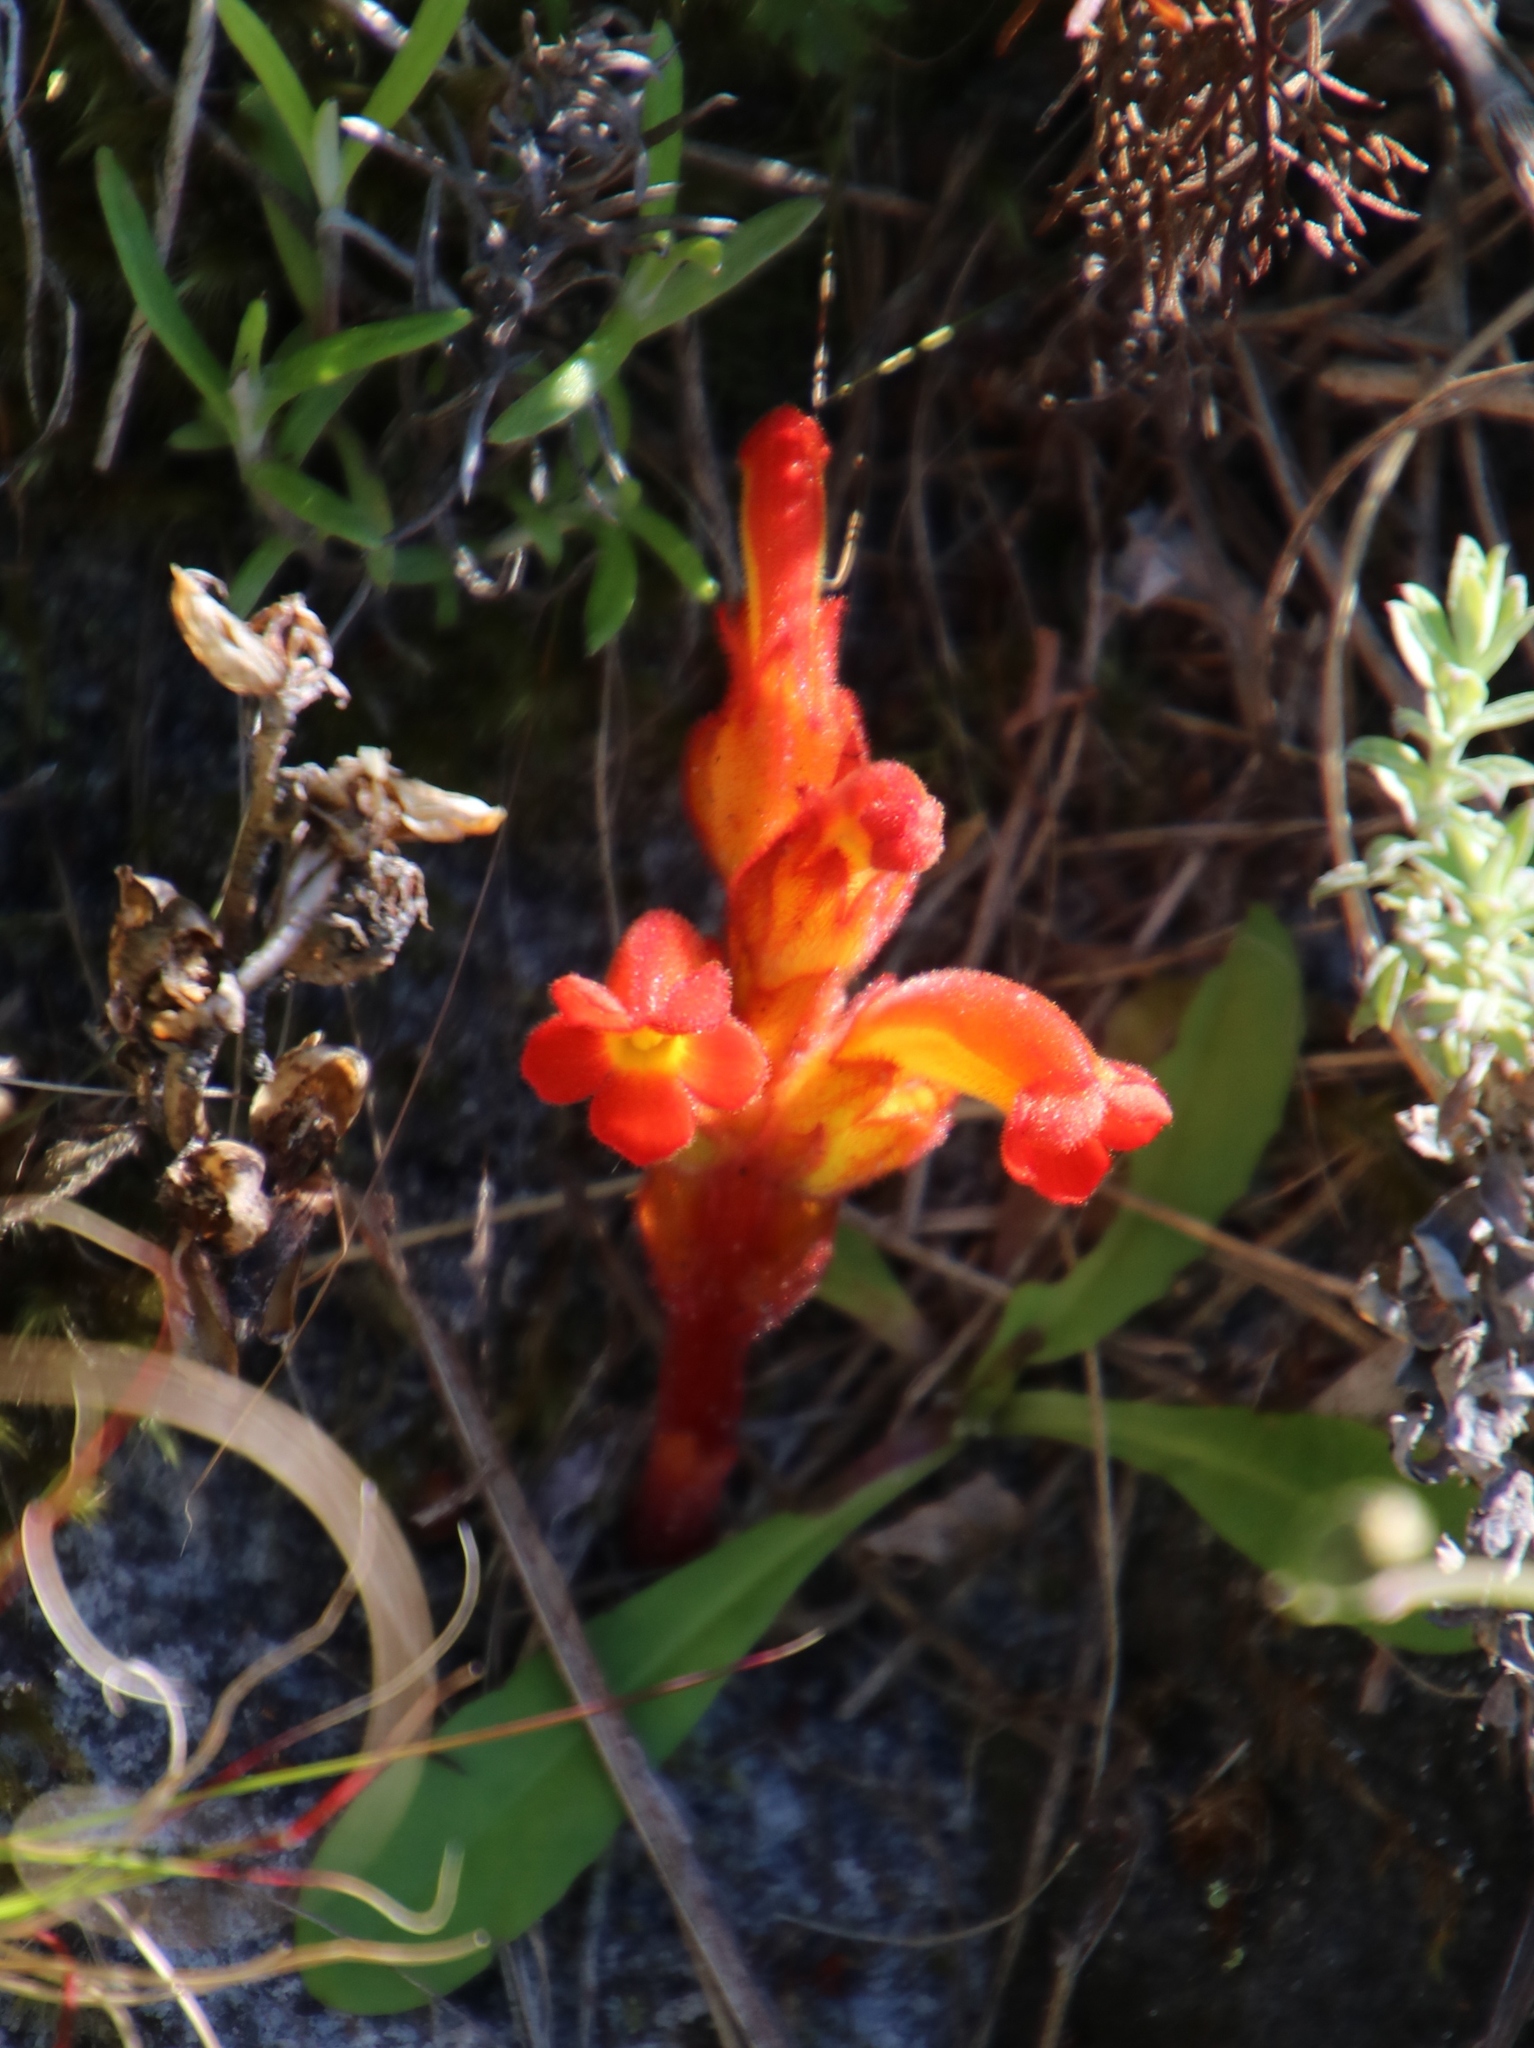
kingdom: Plantae
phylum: Tracheophyta
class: Magnoliopsida
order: Lamiales
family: Orobanchaceae
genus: Harveya
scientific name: Harveya bolusii
